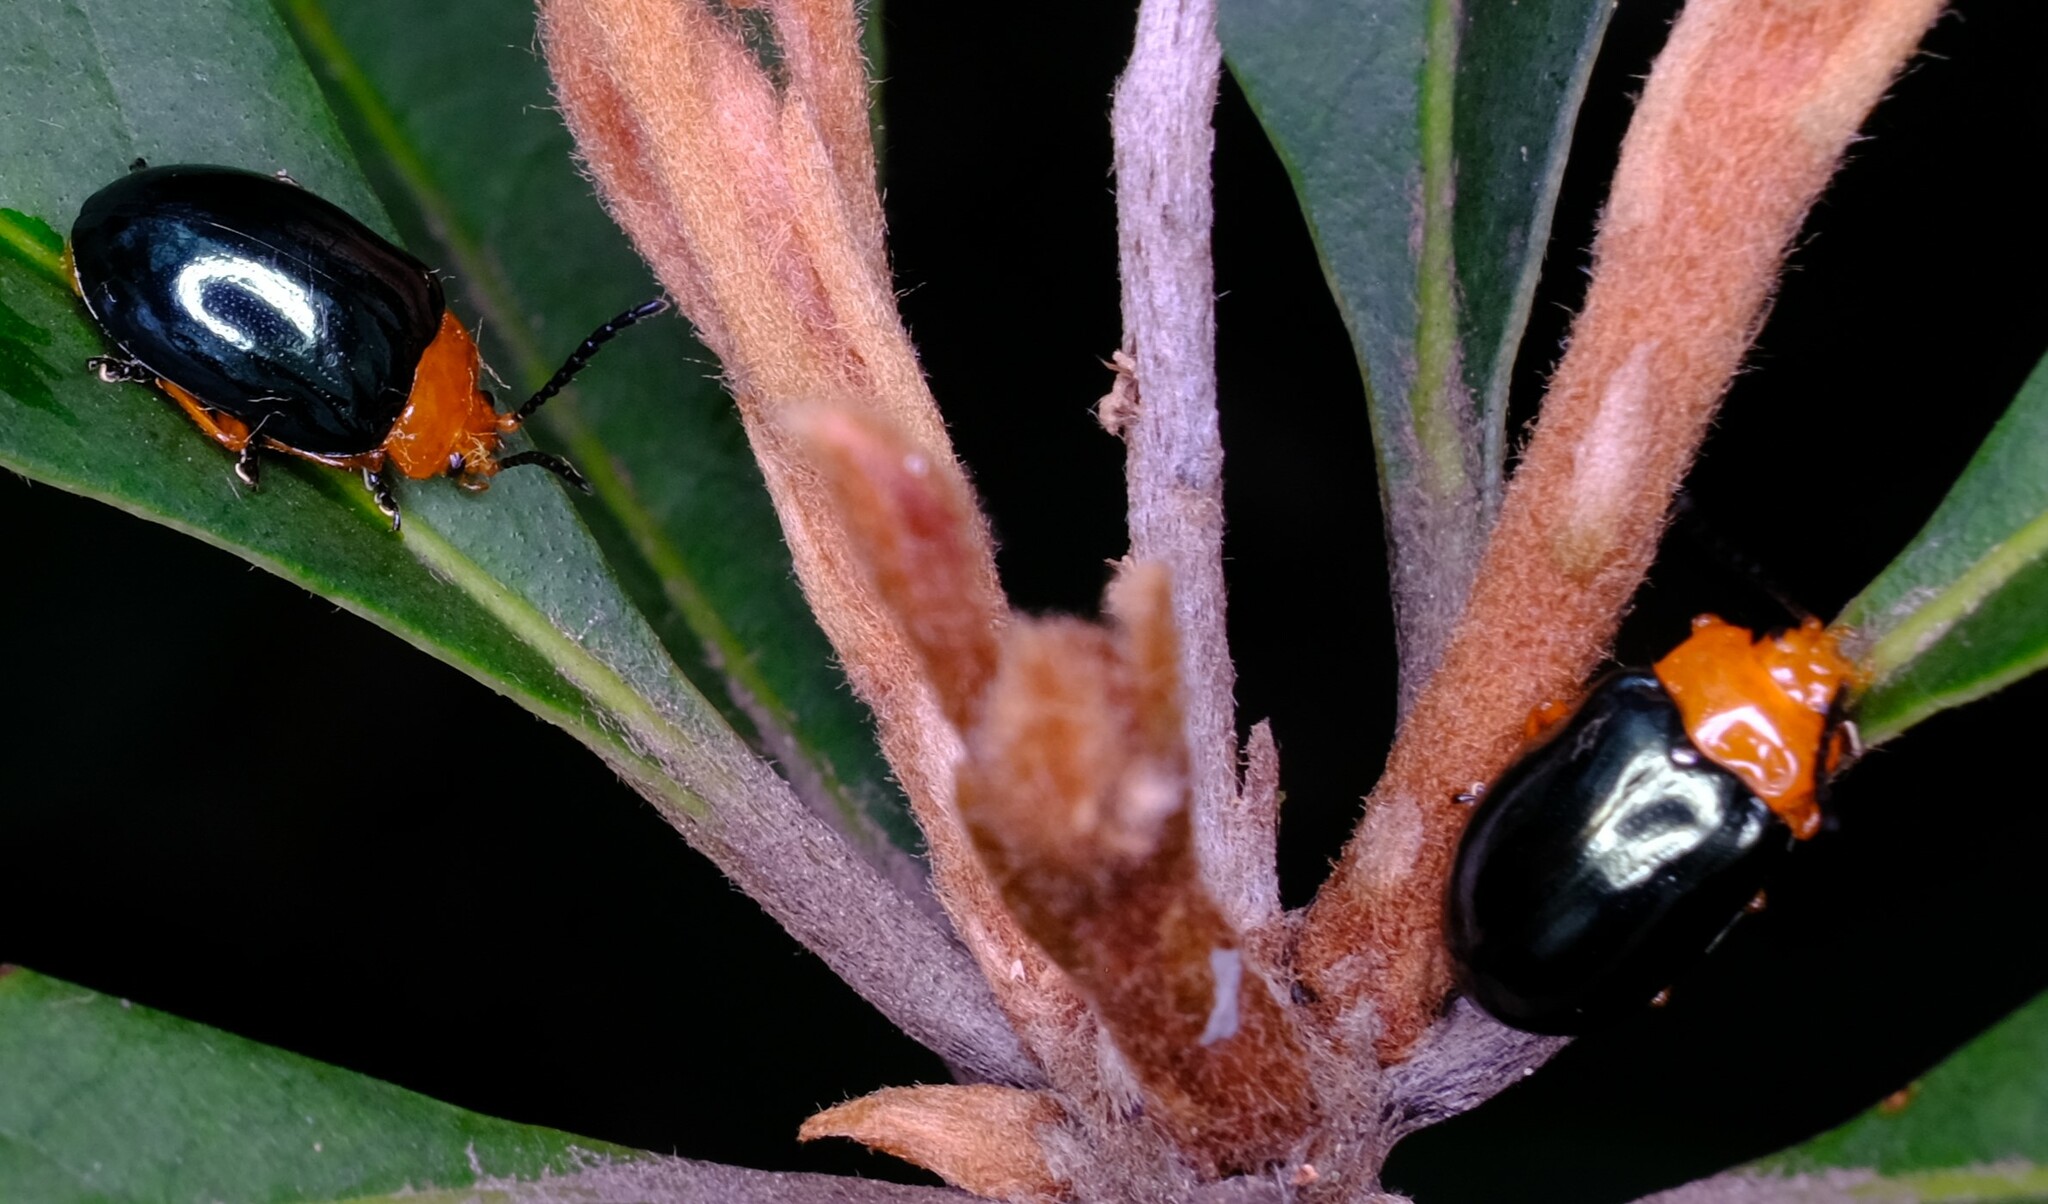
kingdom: Animalia
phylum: Arthropoda
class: Insecta
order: Coleoptera
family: Chrysomelidae
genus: Lamprolina
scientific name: Lamprolina
